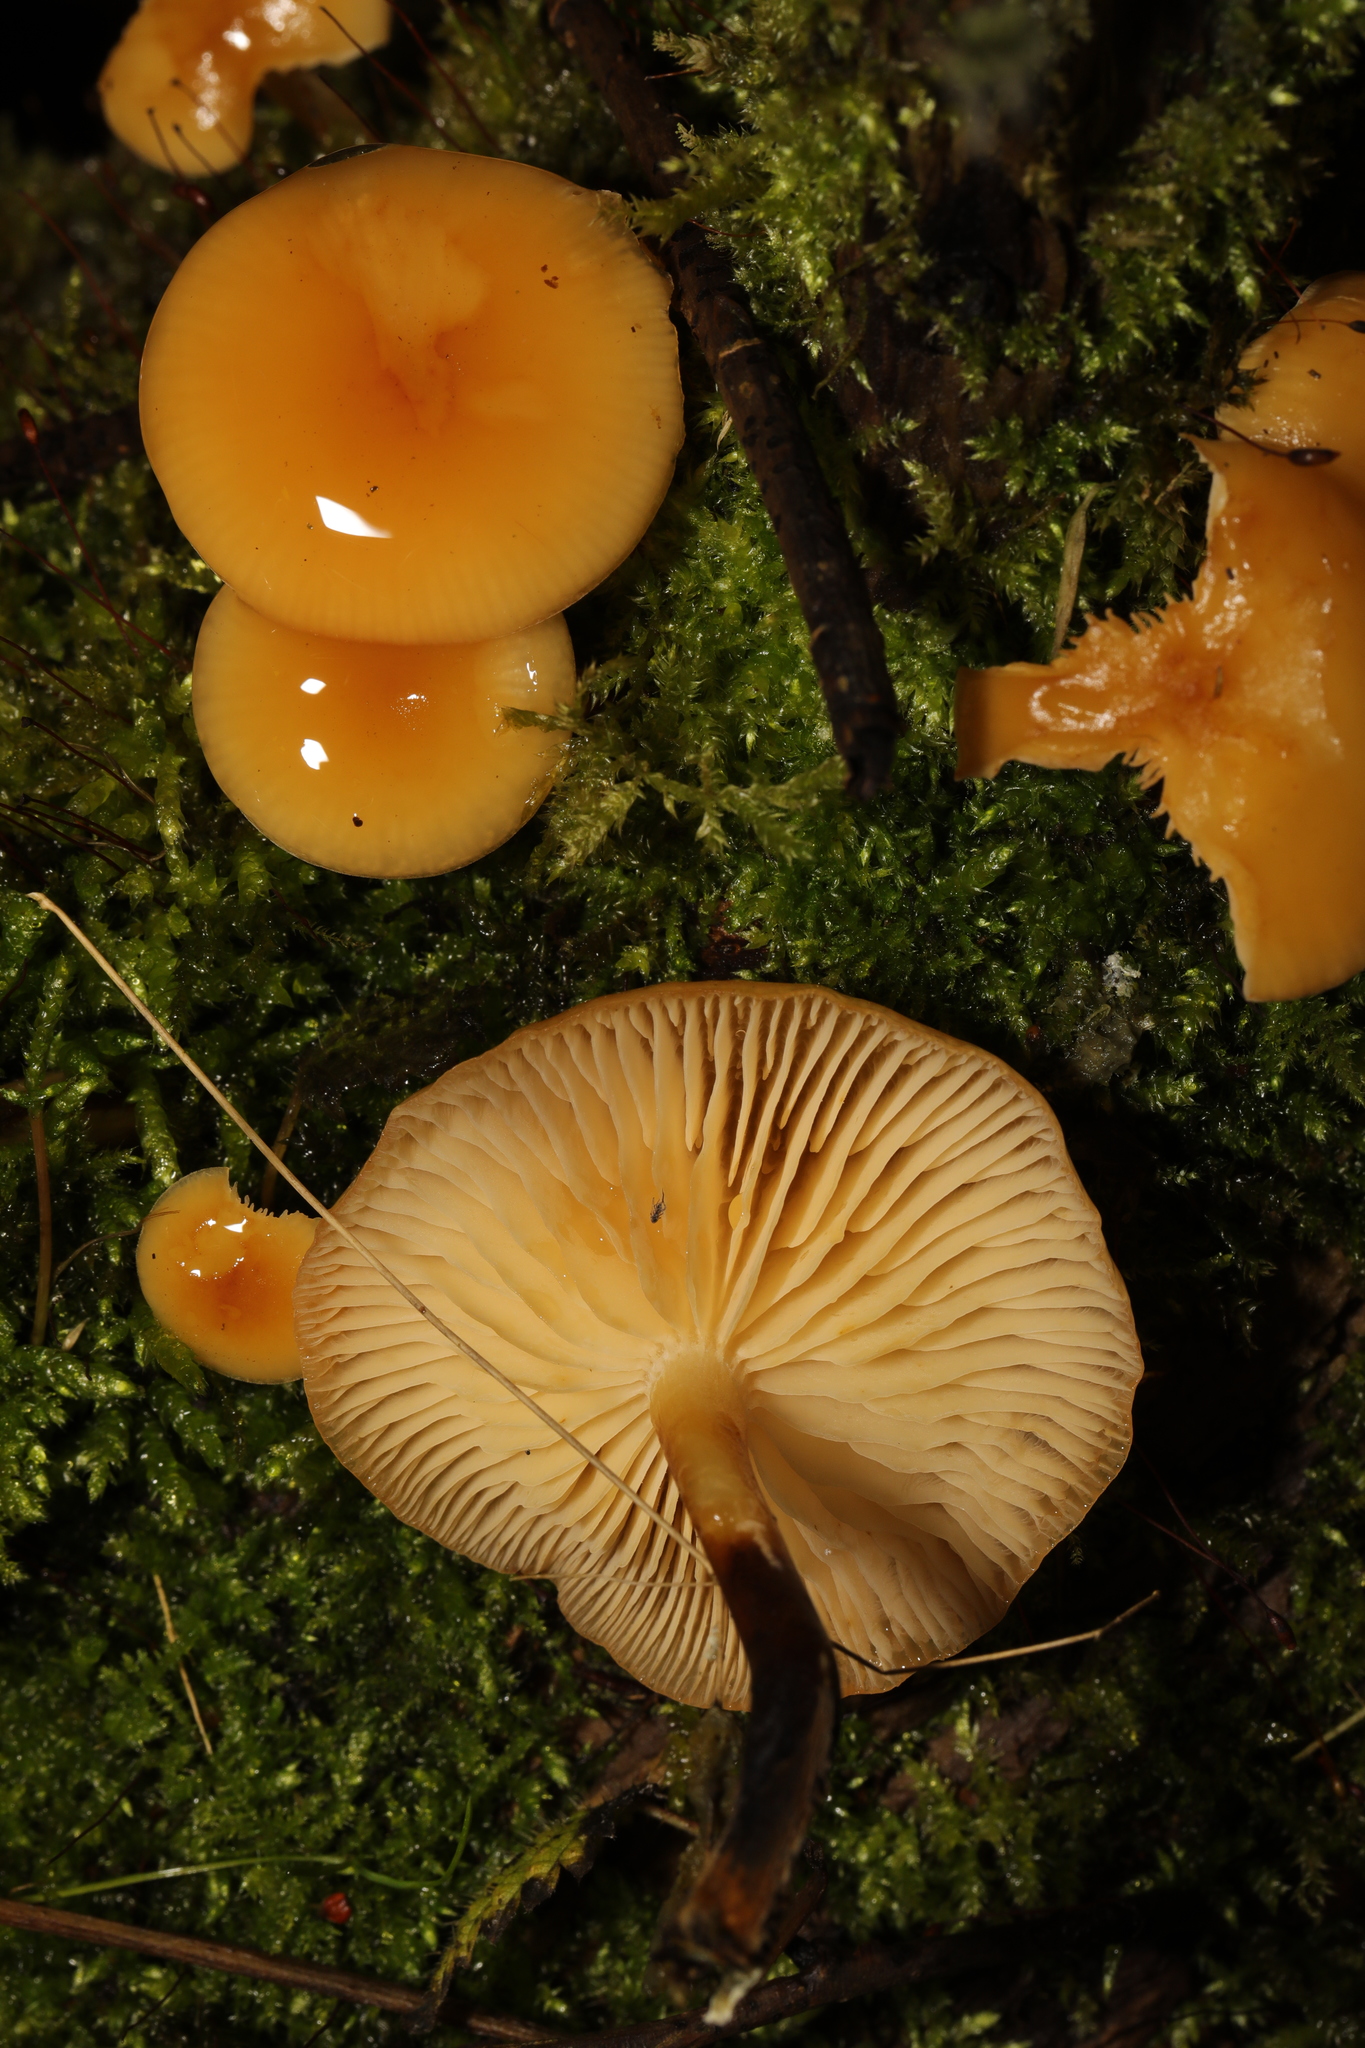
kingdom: Fungi
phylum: Basidiomycota
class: Agaricomycetes
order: Agaricales
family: Physalacriaceae
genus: Flammulina
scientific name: Flammulina
